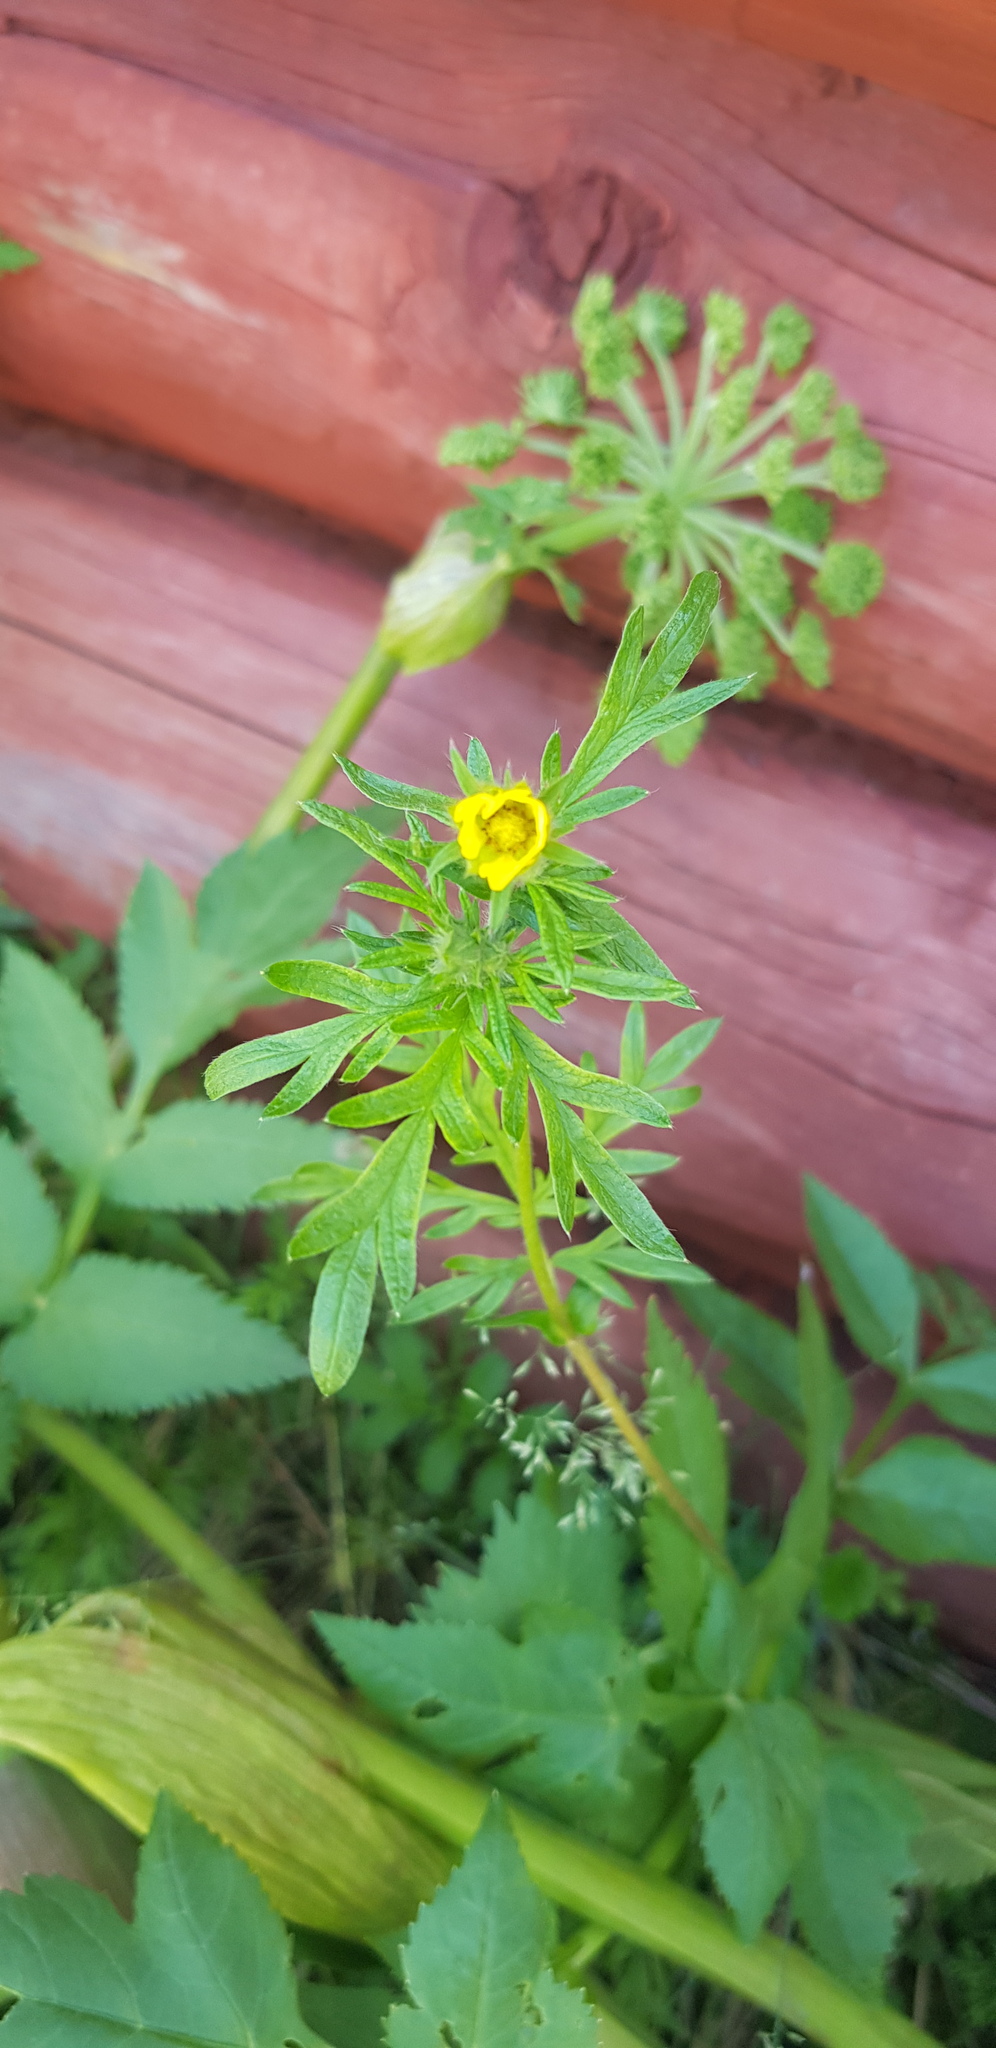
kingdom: Plantae
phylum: Tracheophyta
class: Magnoliopsida
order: Rosales
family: Rosaceae
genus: Potentilla
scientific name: Potentilla tergemina
